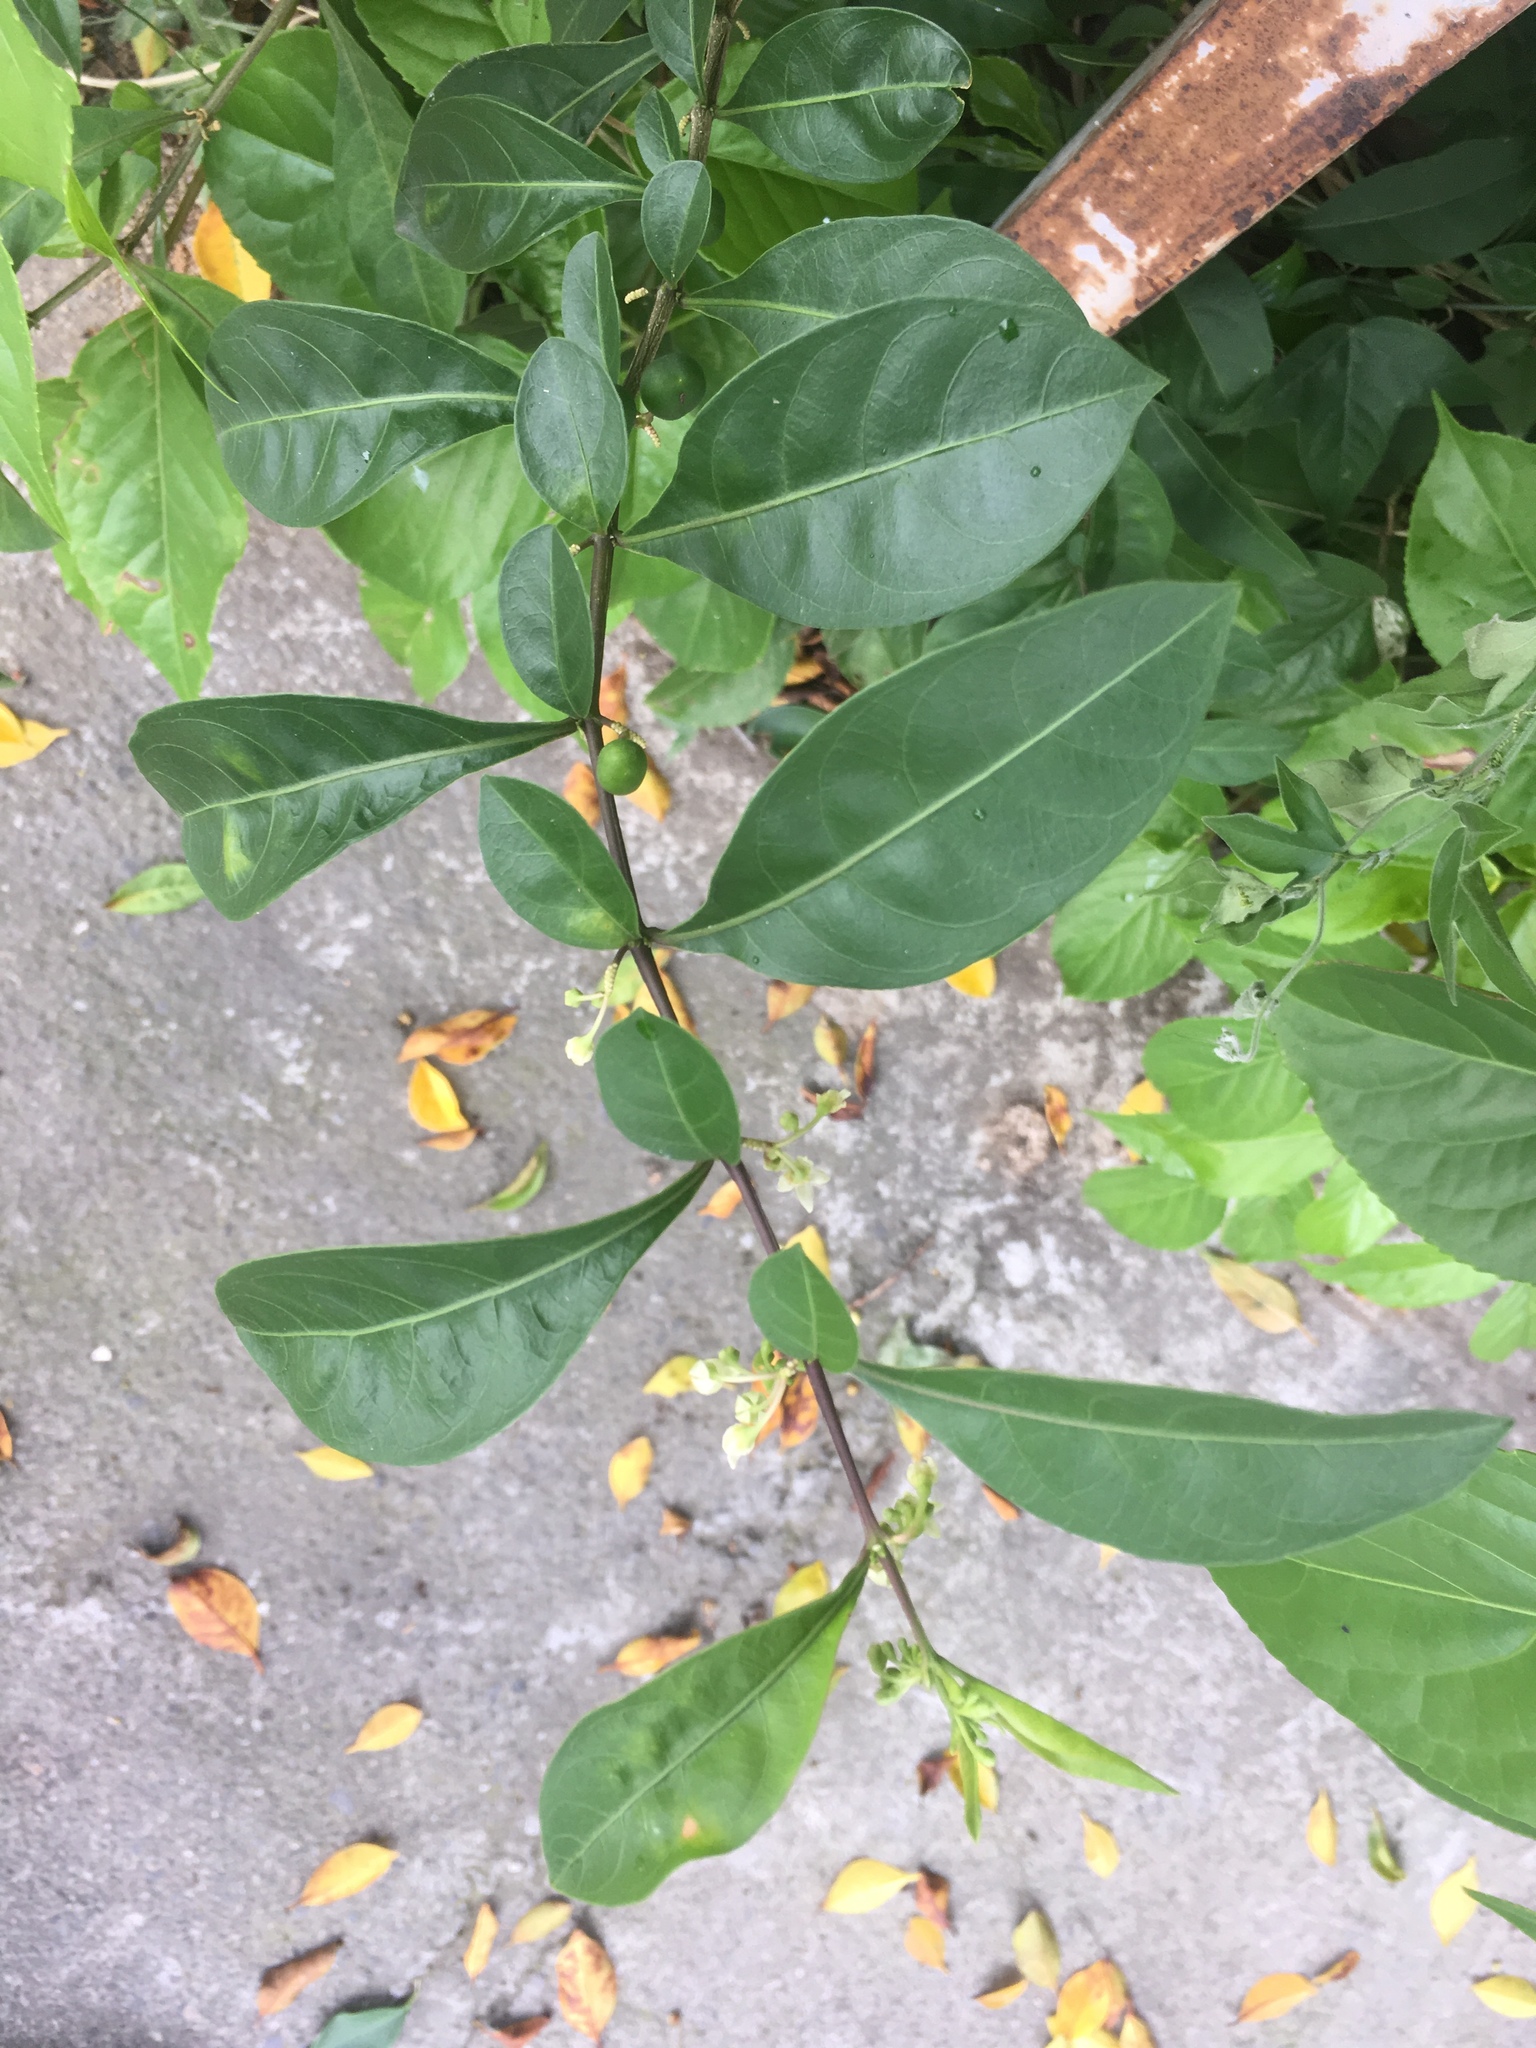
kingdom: Plantae
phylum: Tracheophyta
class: Magnoliopsida
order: Solanales
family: Solanaceae
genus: Solanum
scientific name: Solanum diphyllum
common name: Twoleaf nightshade
